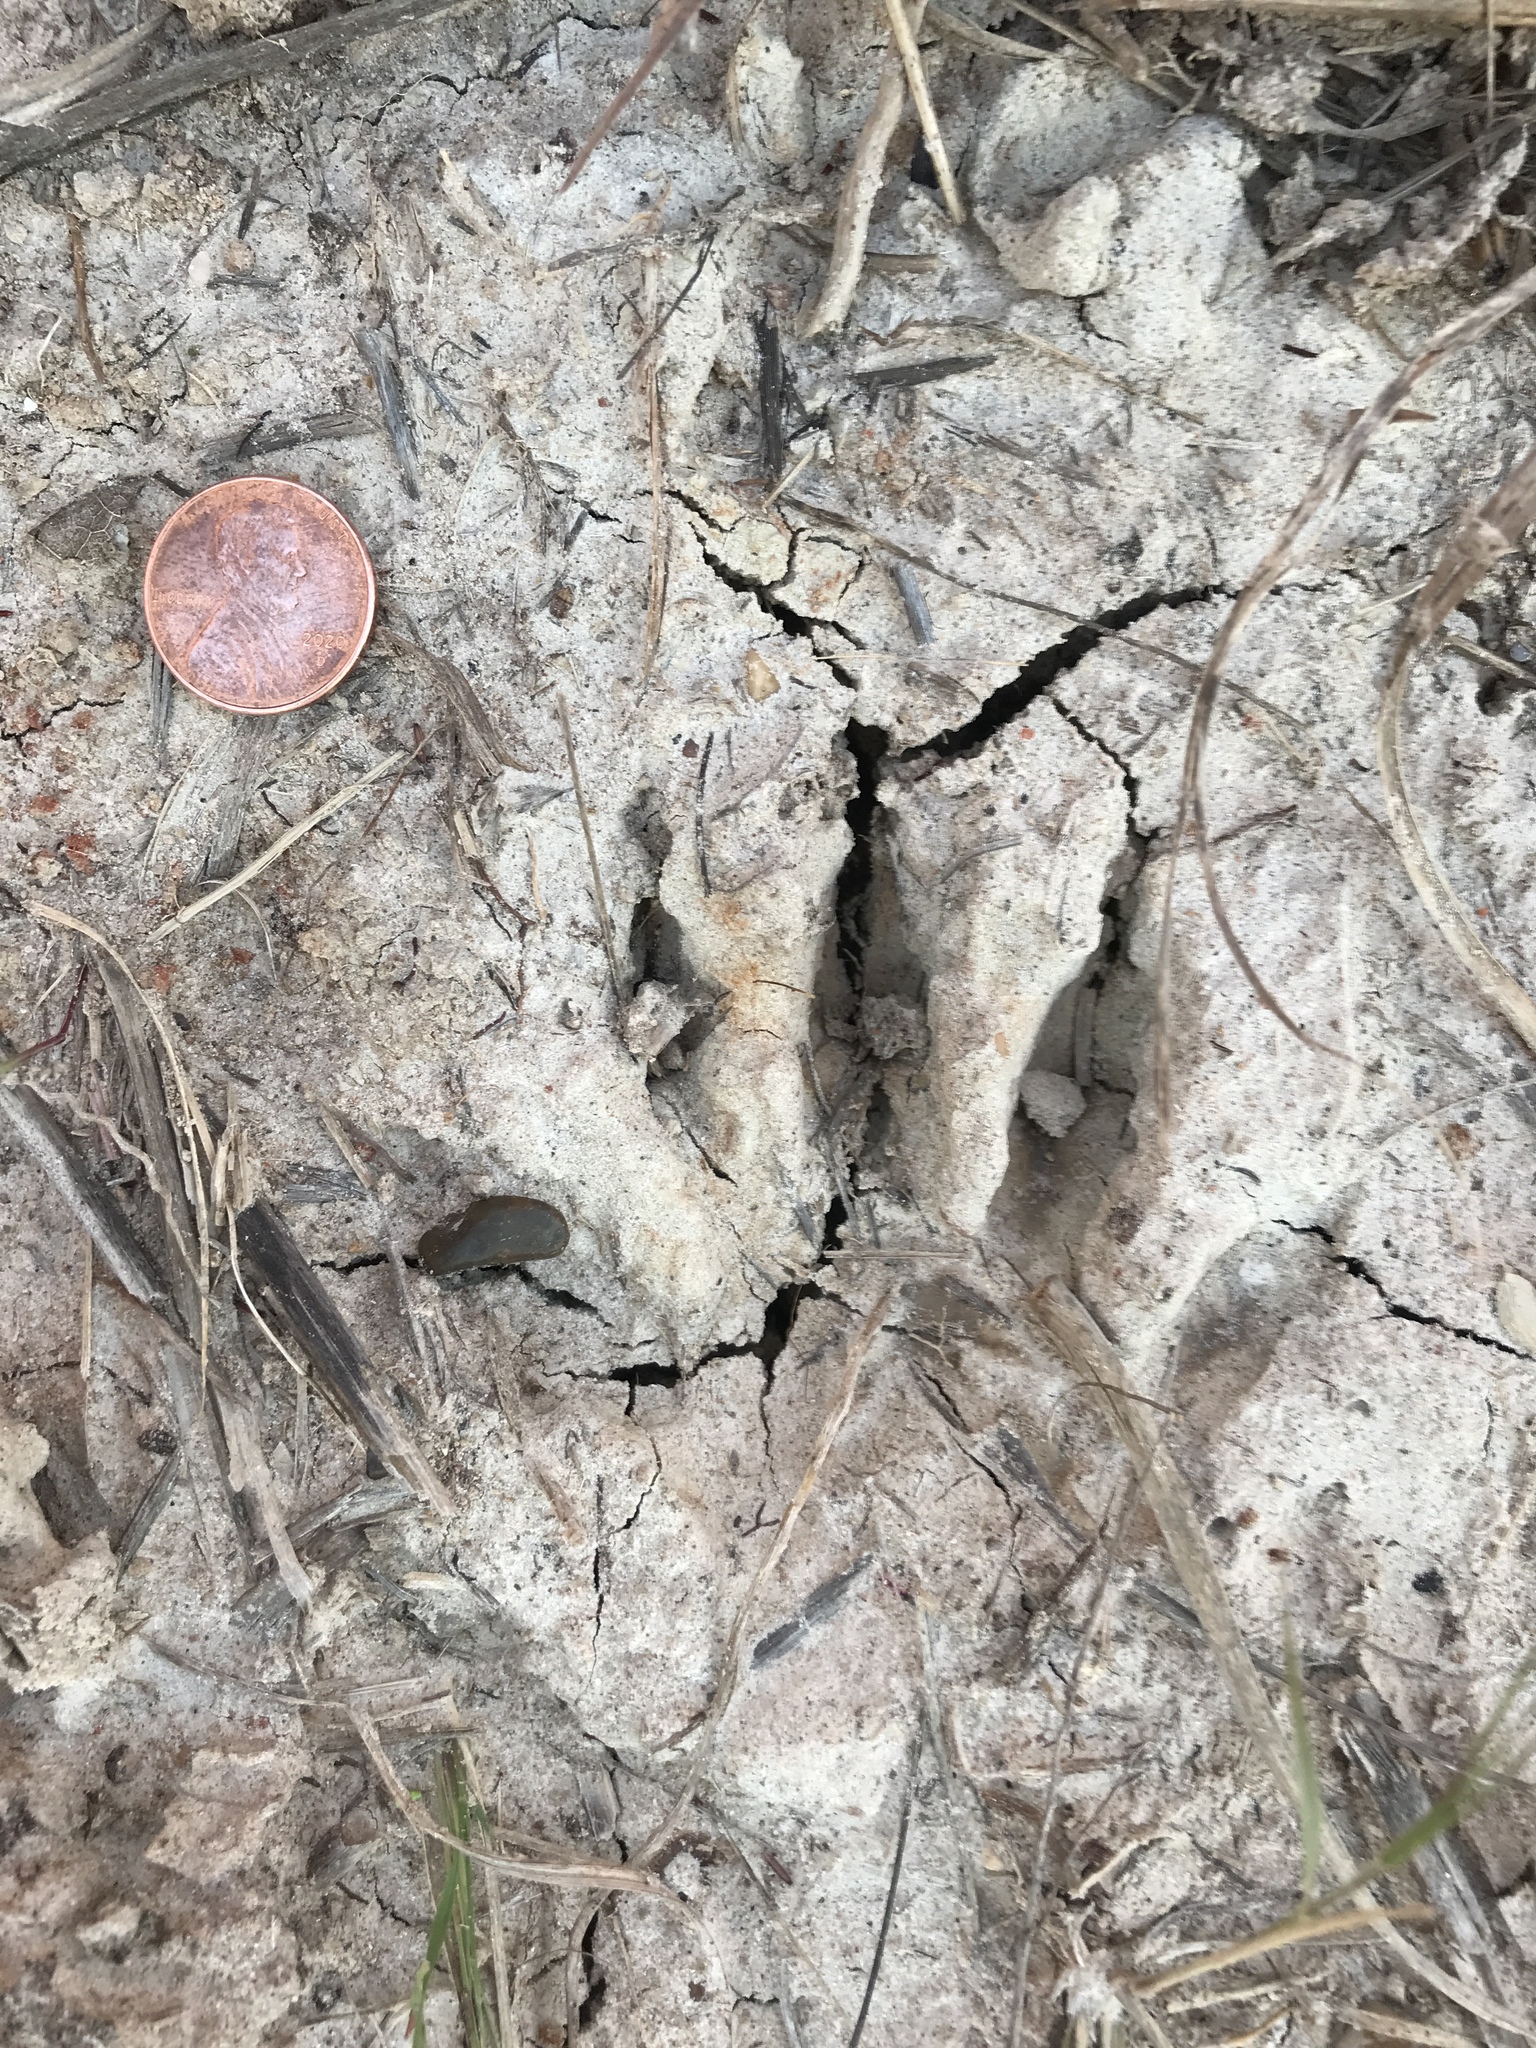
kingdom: Animalia
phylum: Chordata
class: Mammalia
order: Carnivora
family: Procyonidae
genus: Procyon
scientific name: Procyon lotor
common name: Raccoon
